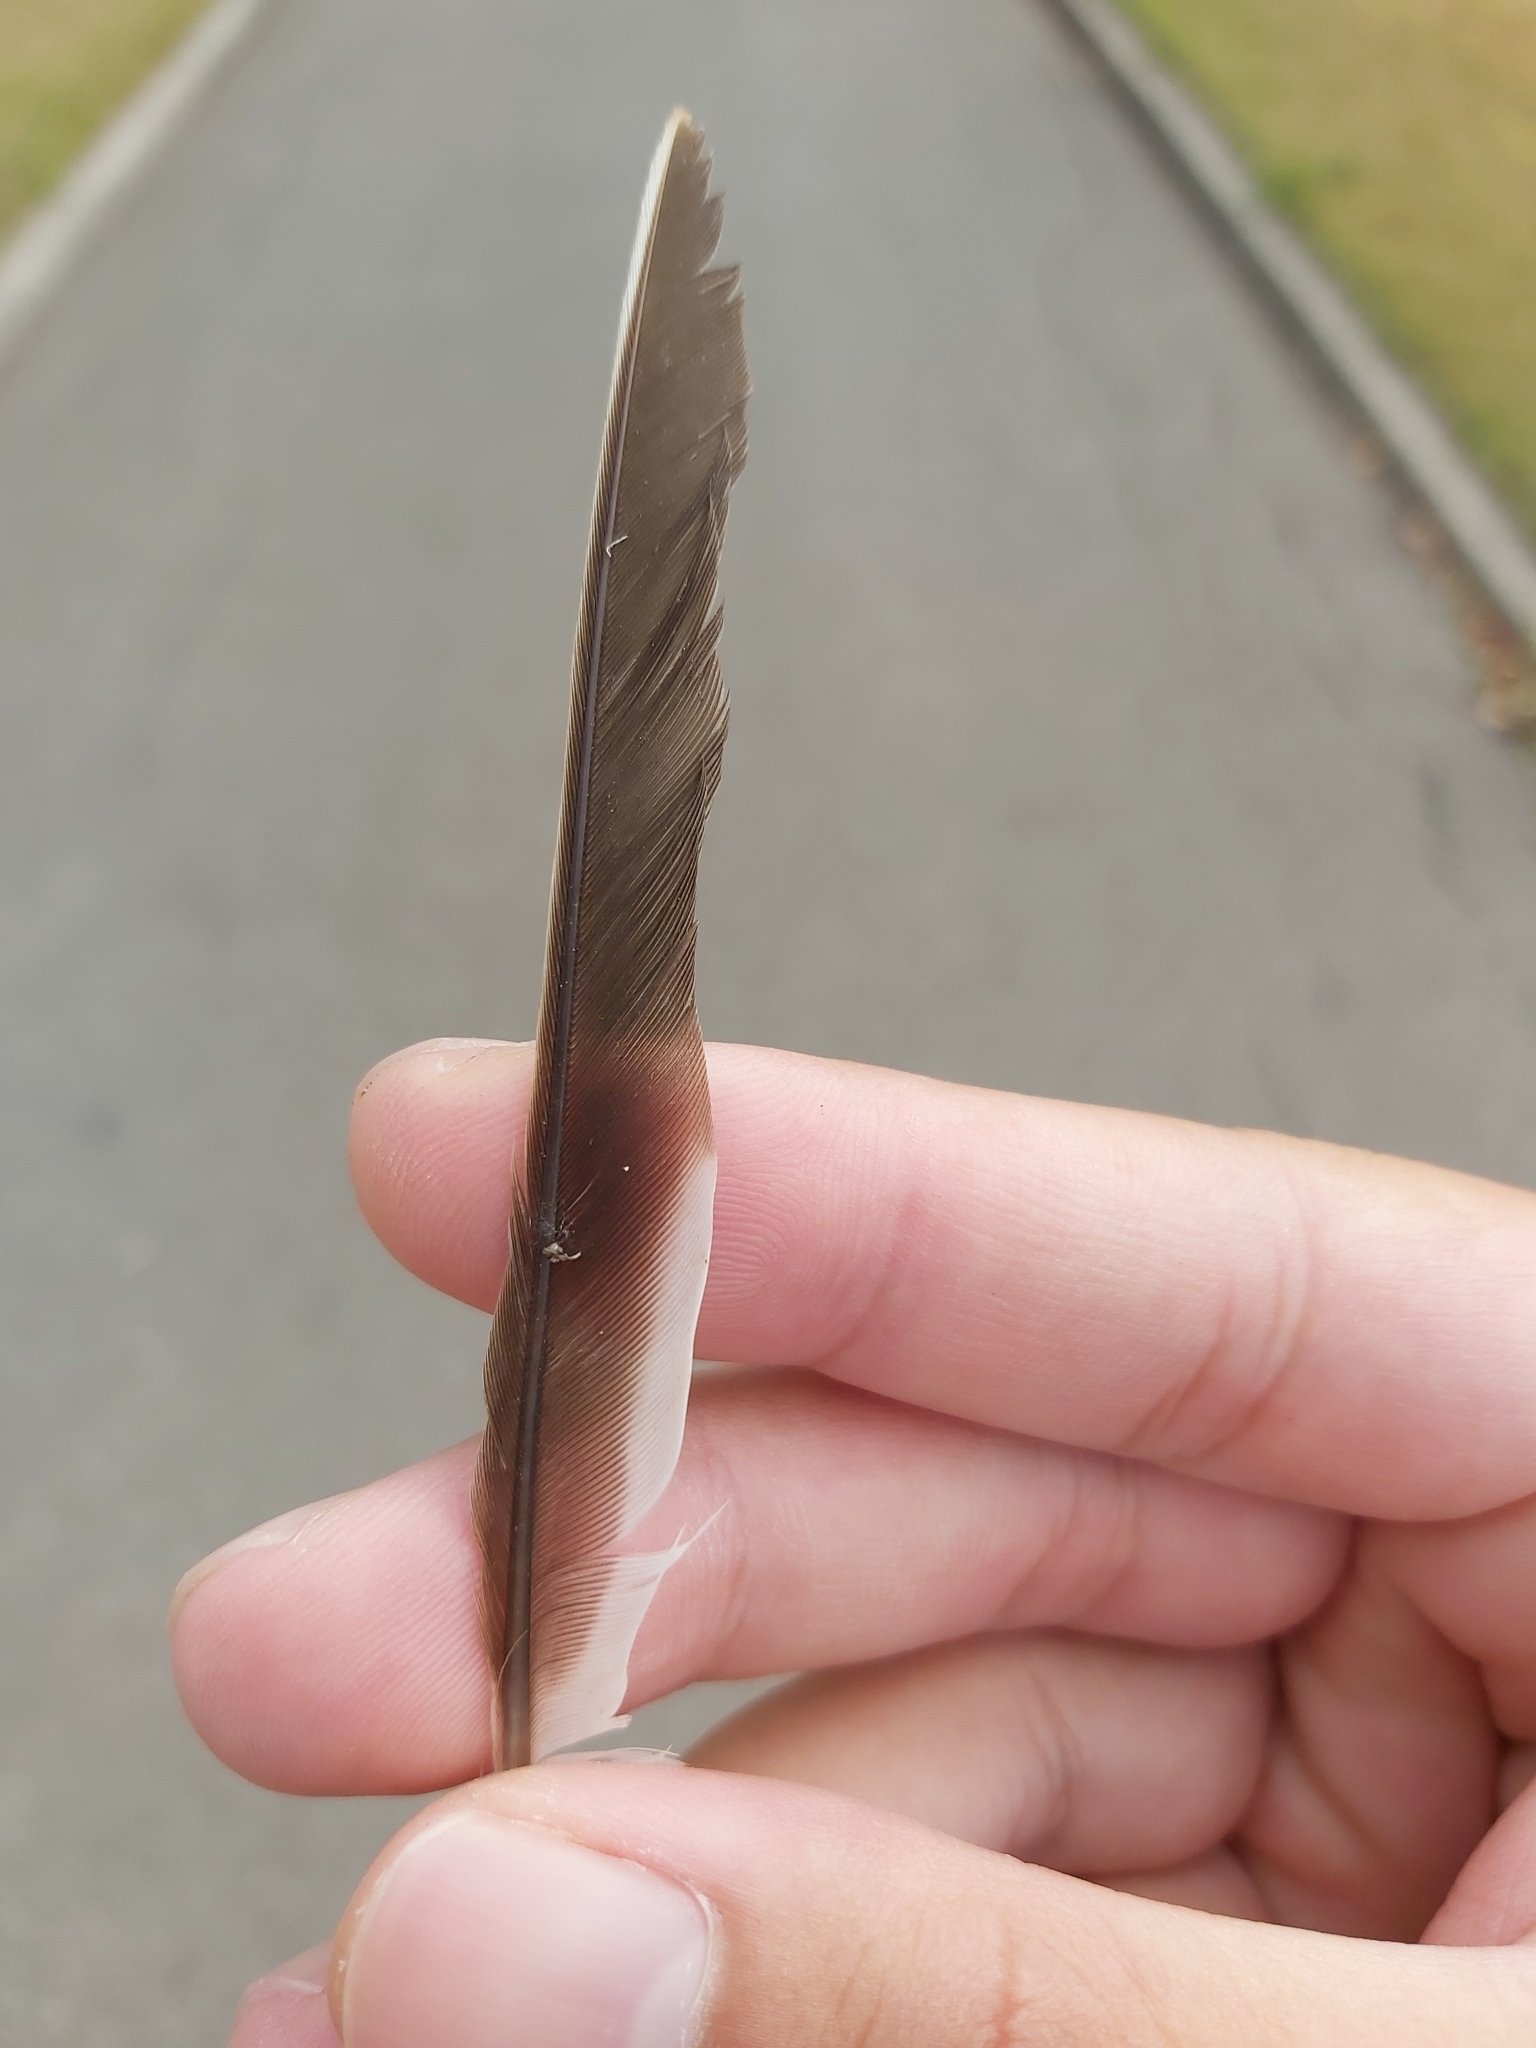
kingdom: Animalia
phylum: Chordata
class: Aves
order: Passeriformes
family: Meliphagidae
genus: Manorina
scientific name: Manorina melanocephala
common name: Noisy miner
